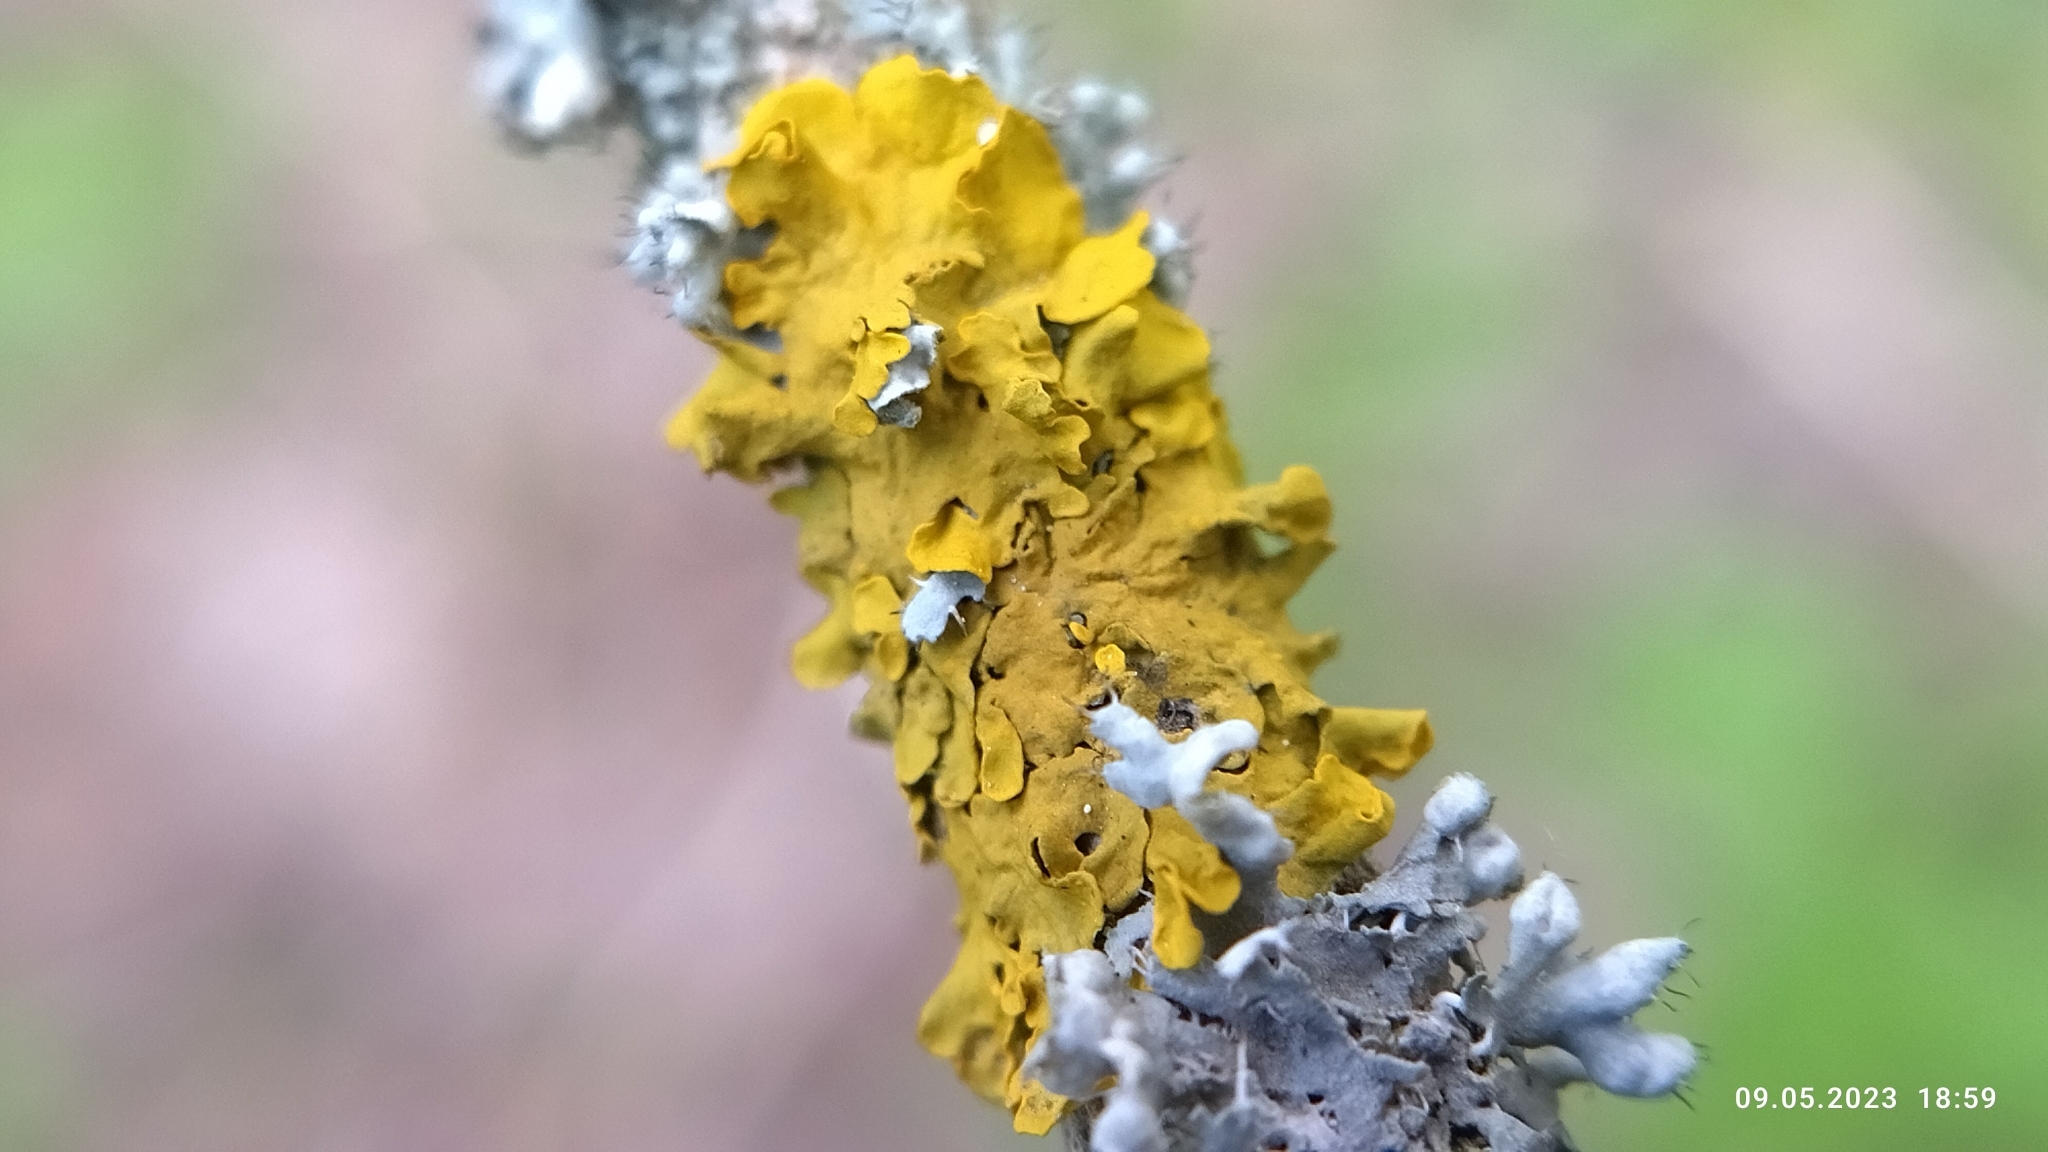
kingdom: Fungi
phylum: Ascomycota
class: Lecanoromycetes
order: Teloschistales
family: Teloschistaceae
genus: Xanthoria
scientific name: Xanthoria parietina
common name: Common orange lichen
